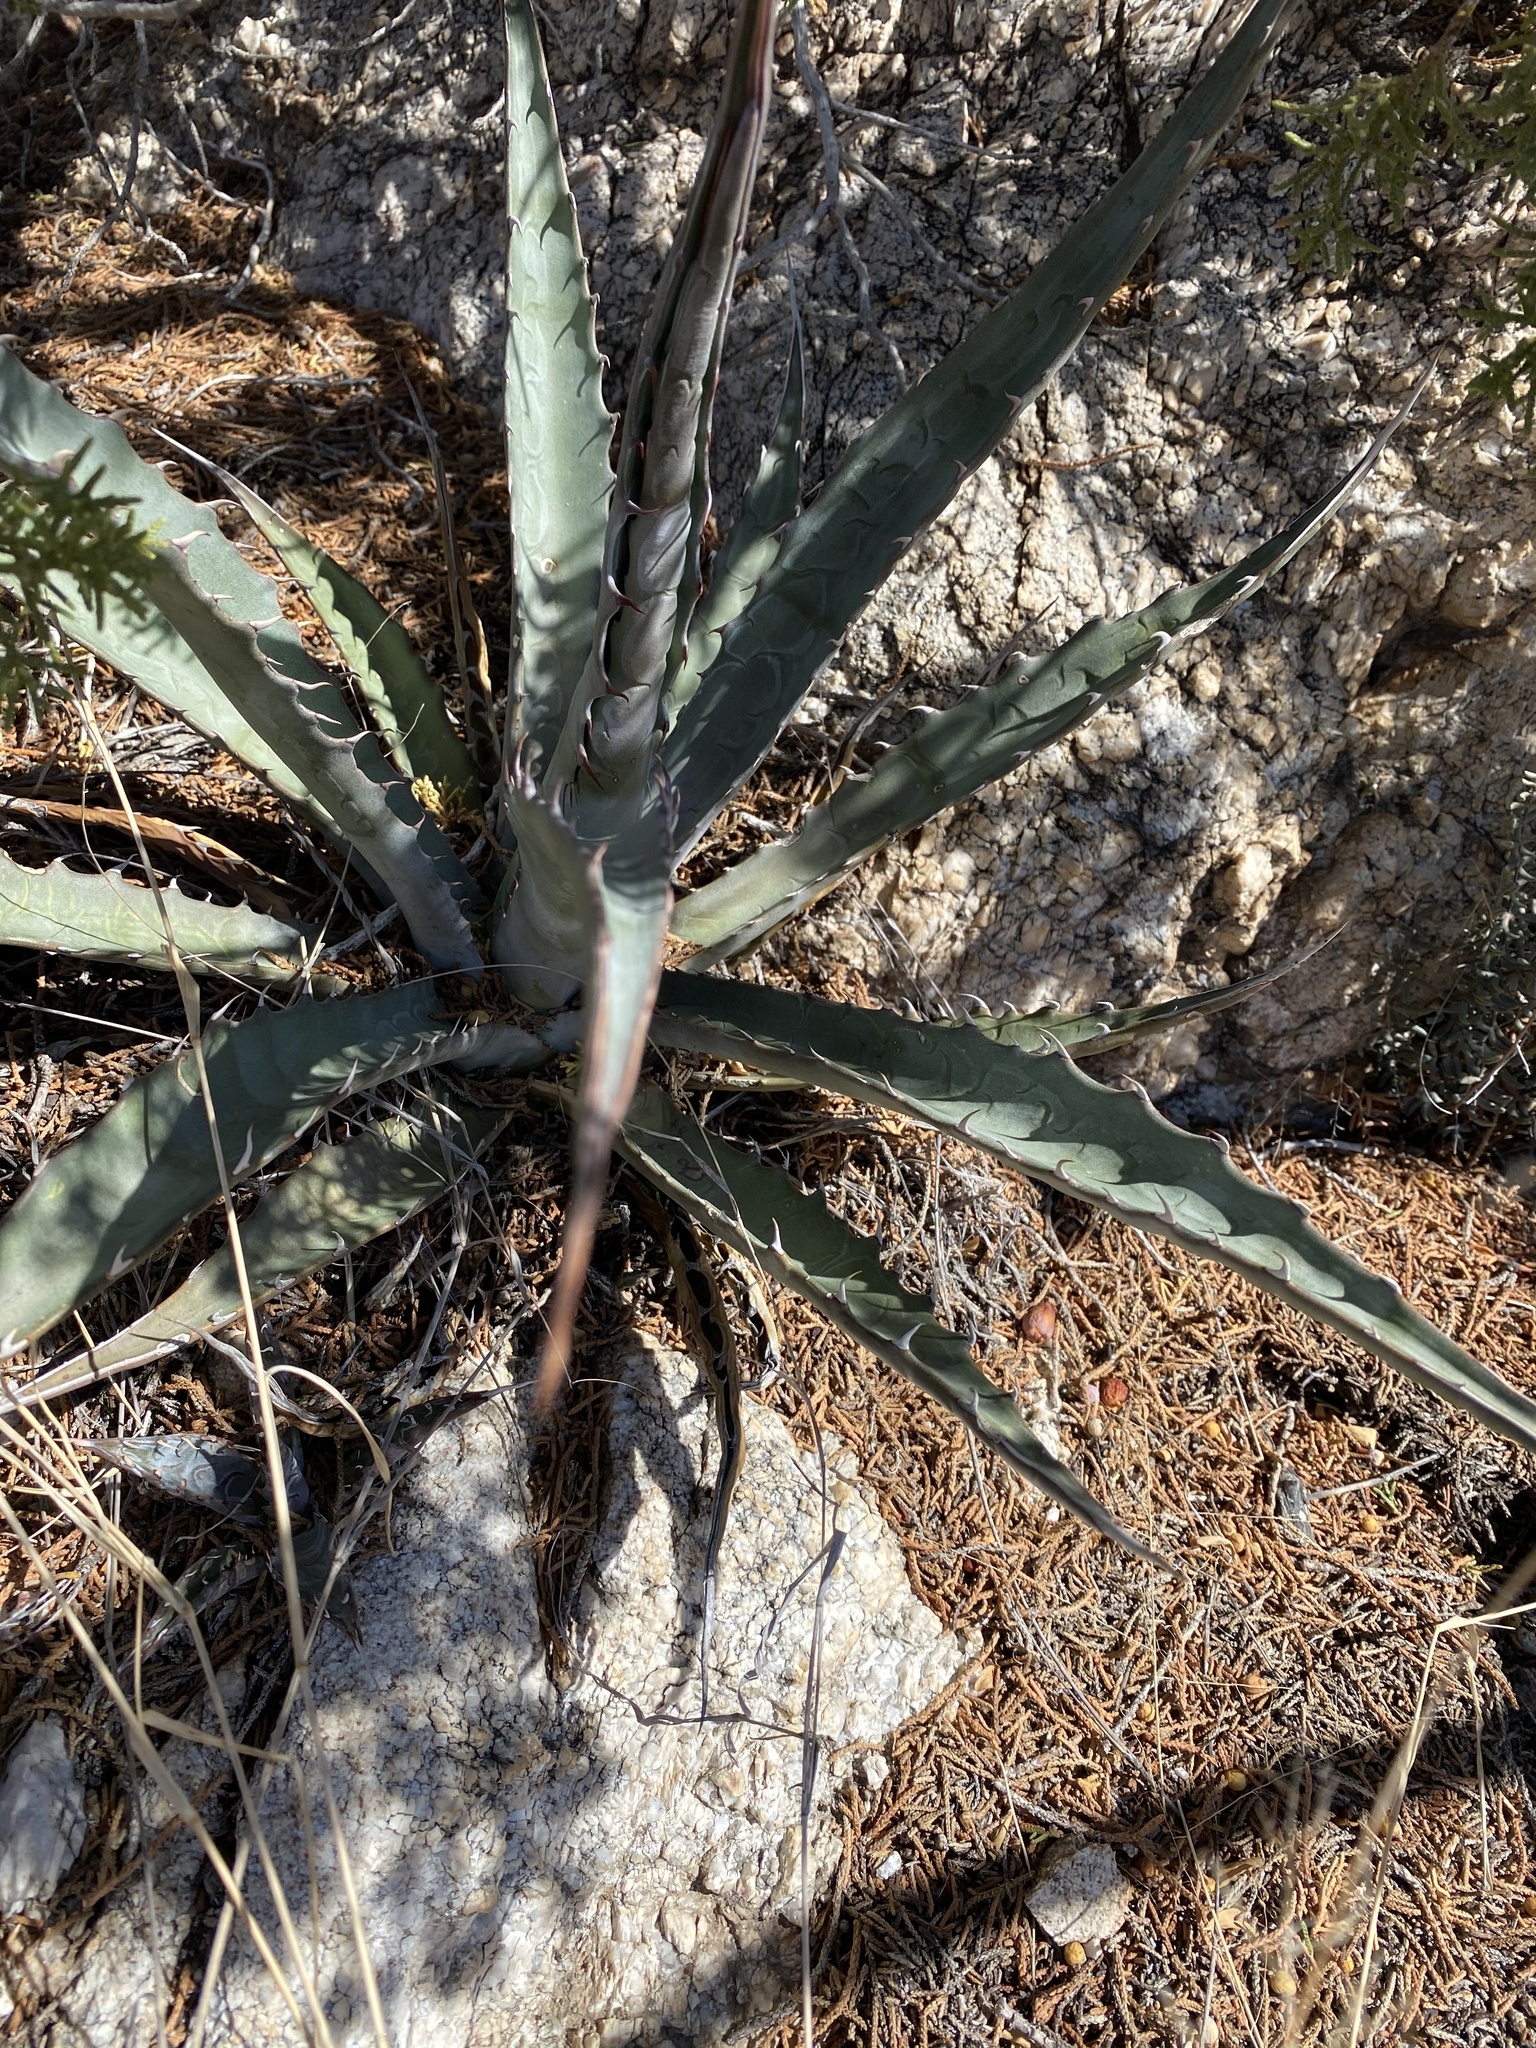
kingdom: Plantae
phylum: Tracheophyta
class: Liliopsida
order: Asparagales
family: Asparagaceae
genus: Agave
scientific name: Agave palmeri
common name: Palmer agave
